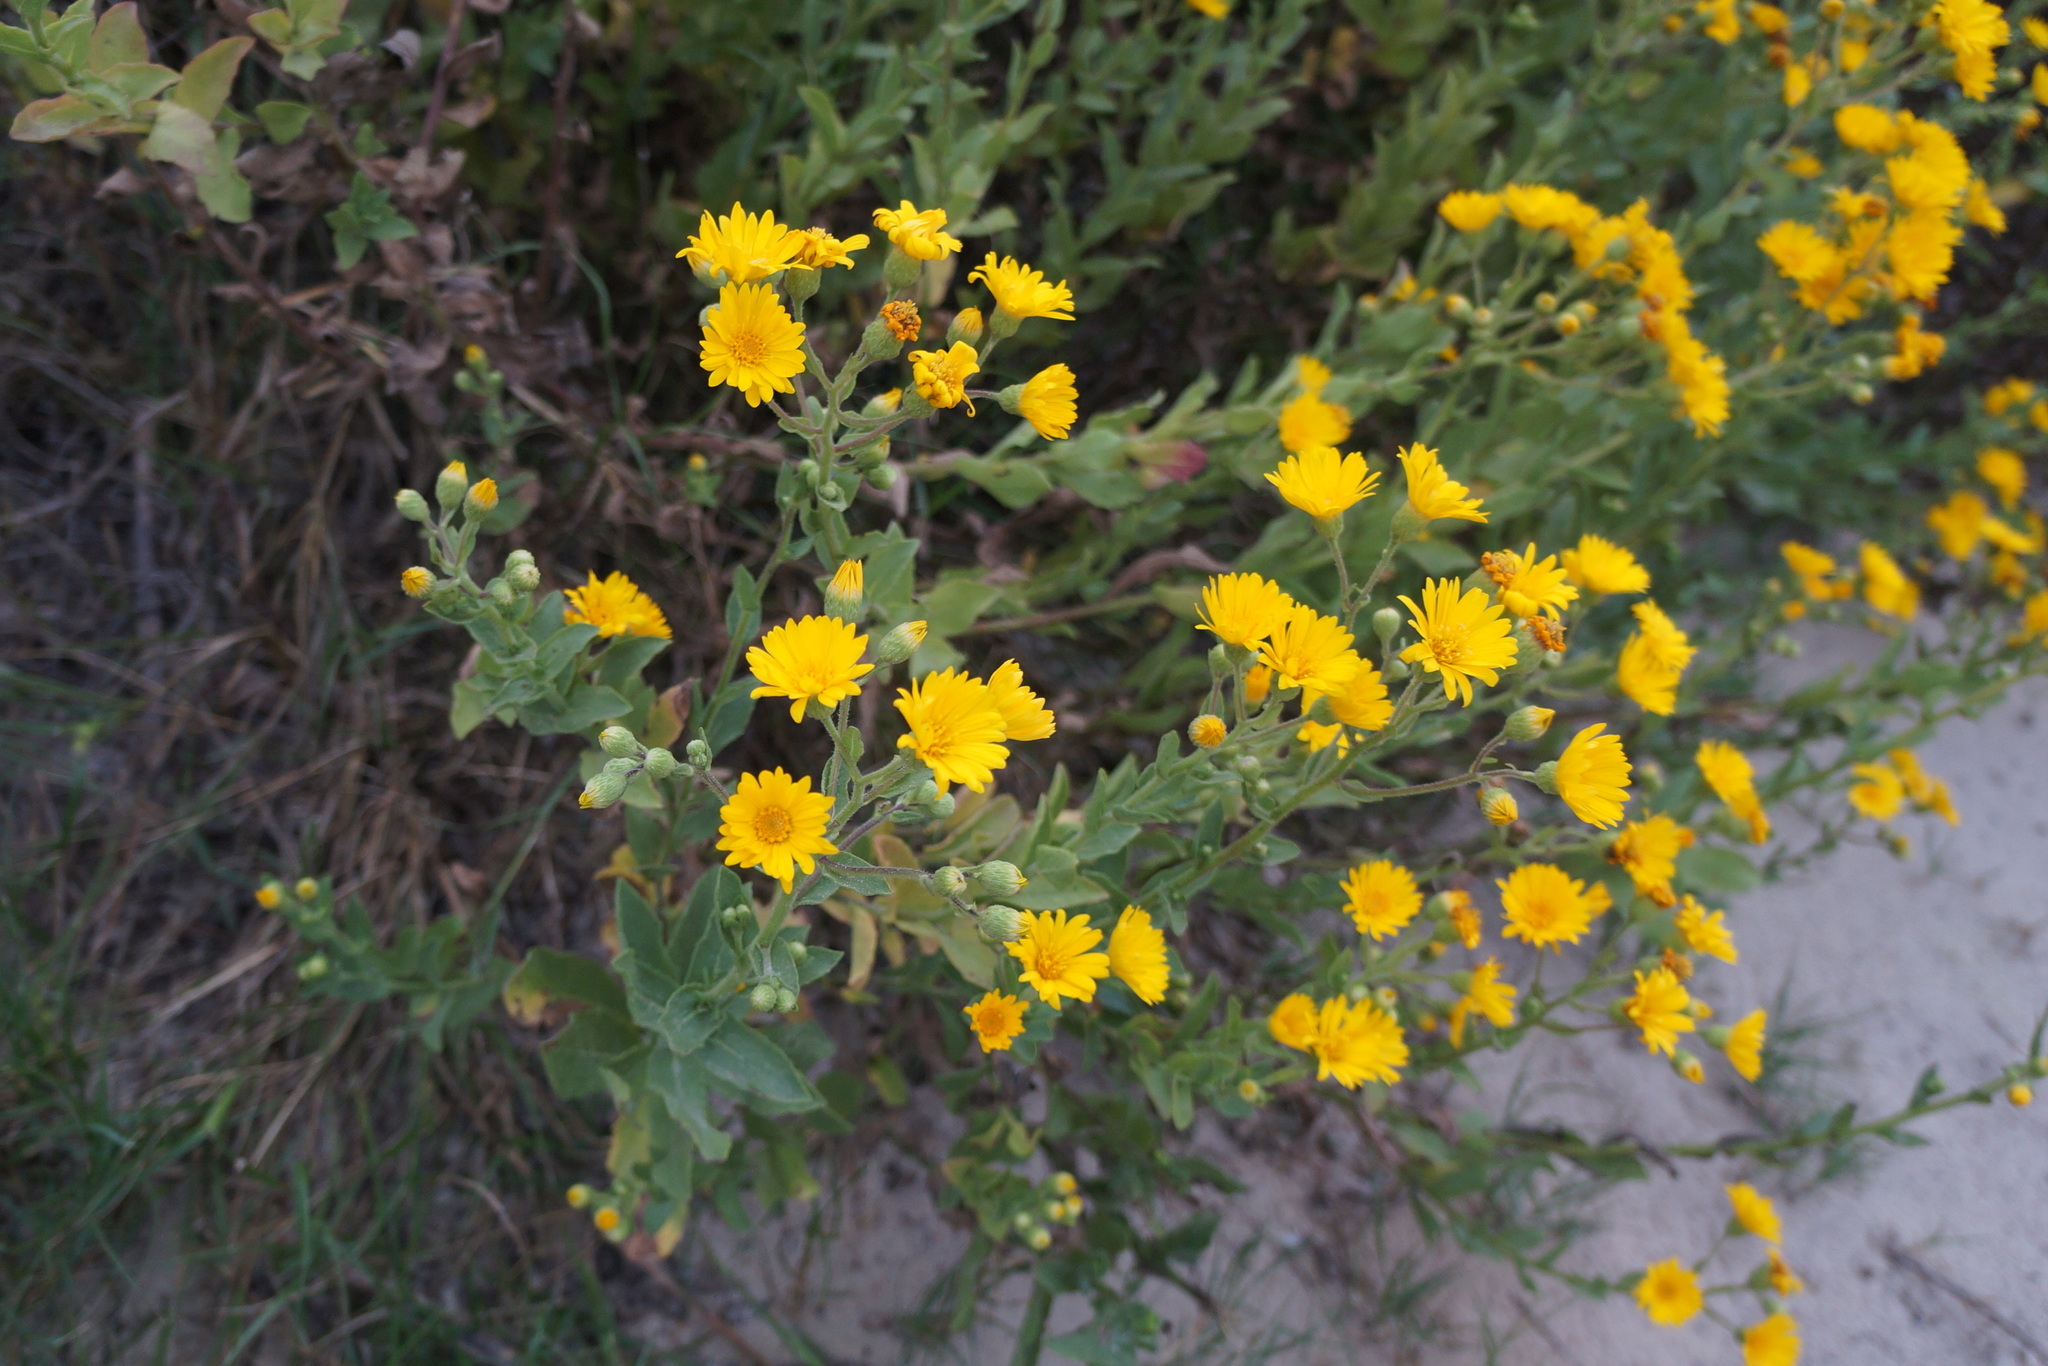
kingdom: Plantae
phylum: Tracheophyta
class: Magnoliopsida
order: Asterales
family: Asteraceae
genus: Heterotheca
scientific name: Heterotheca subaxillaris
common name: Camphorweed
